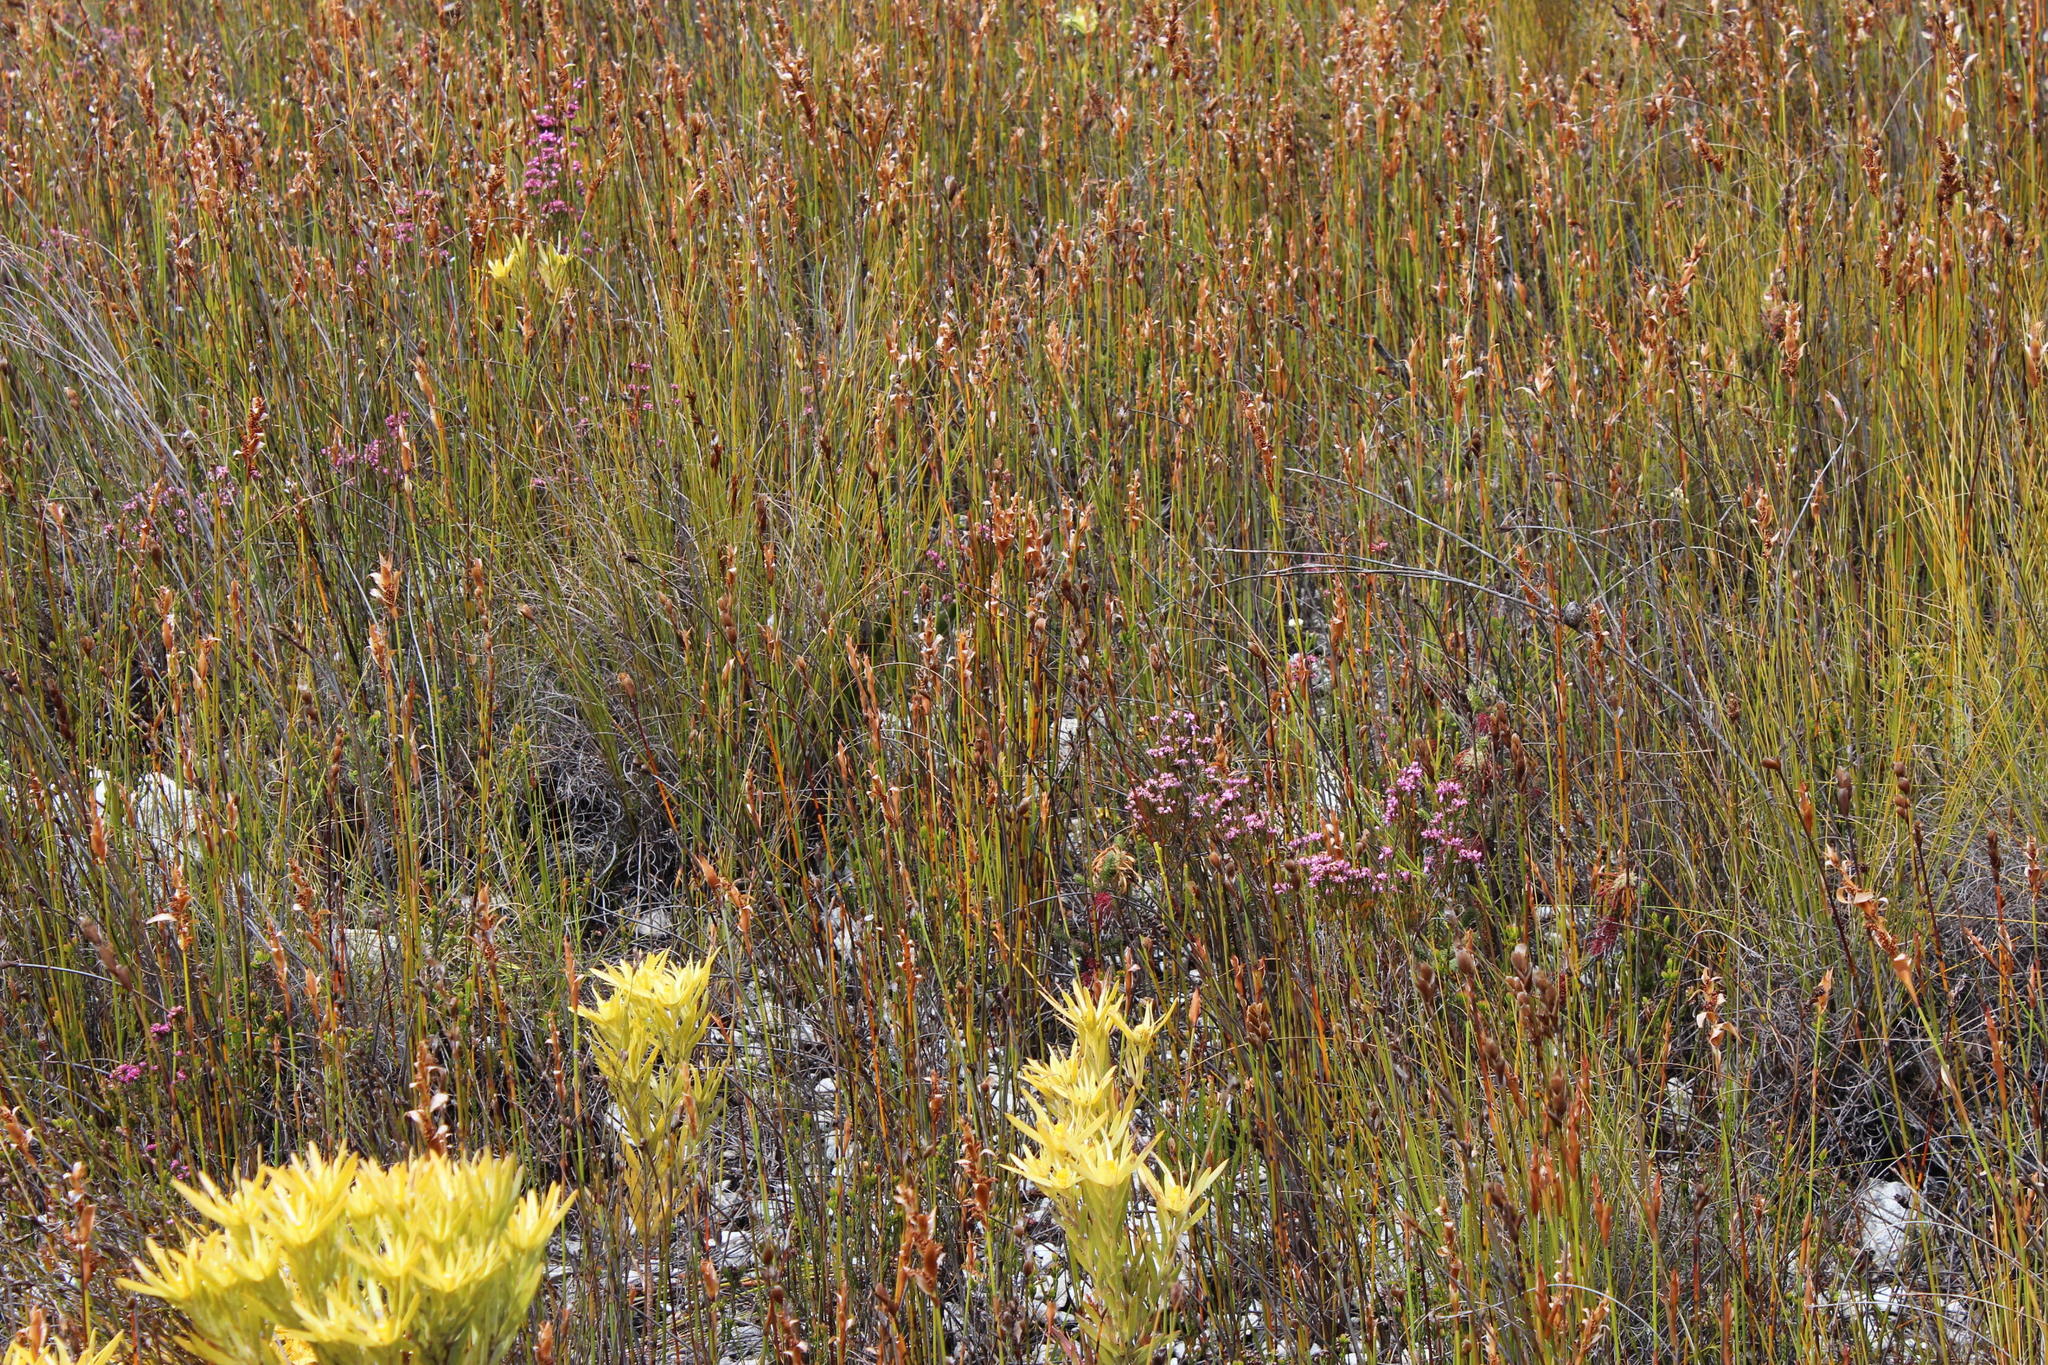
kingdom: Plantae
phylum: Tracheophyta
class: Magnoliopsida
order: Ericales
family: Ericaceae
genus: Erica
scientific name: Erica corifolia
